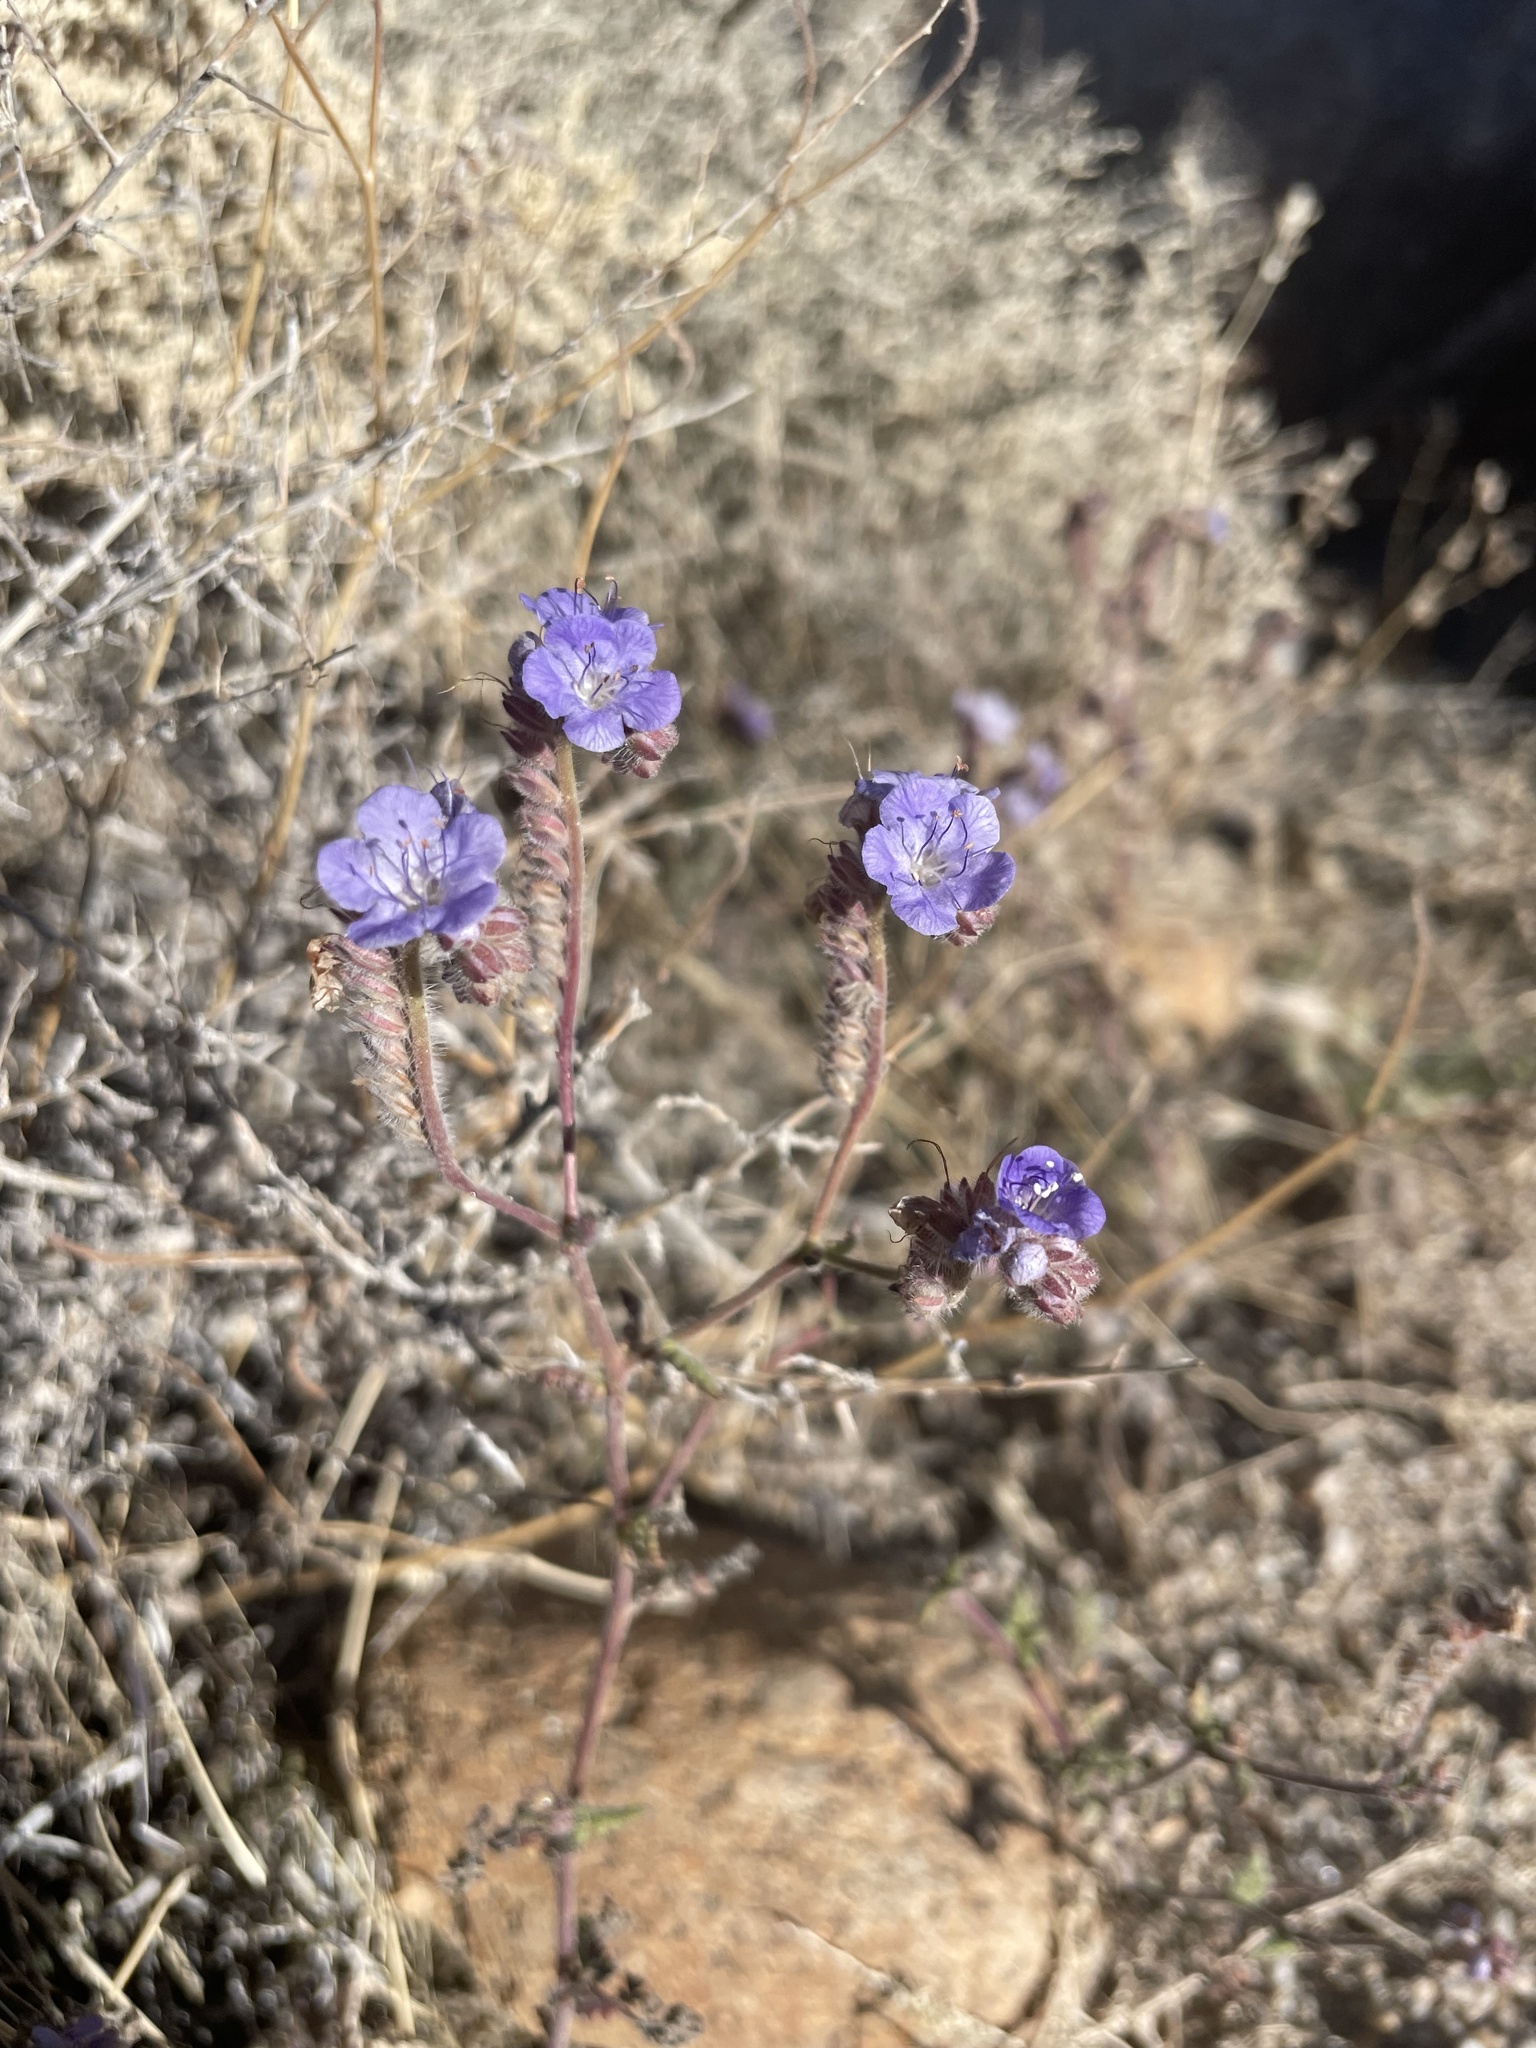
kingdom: Plantae
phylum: Tracheophyta
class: Magnoliopsida
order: Boraginales
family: Hydrophyllaceae
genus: Phacelia
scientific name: Phacelia distans
